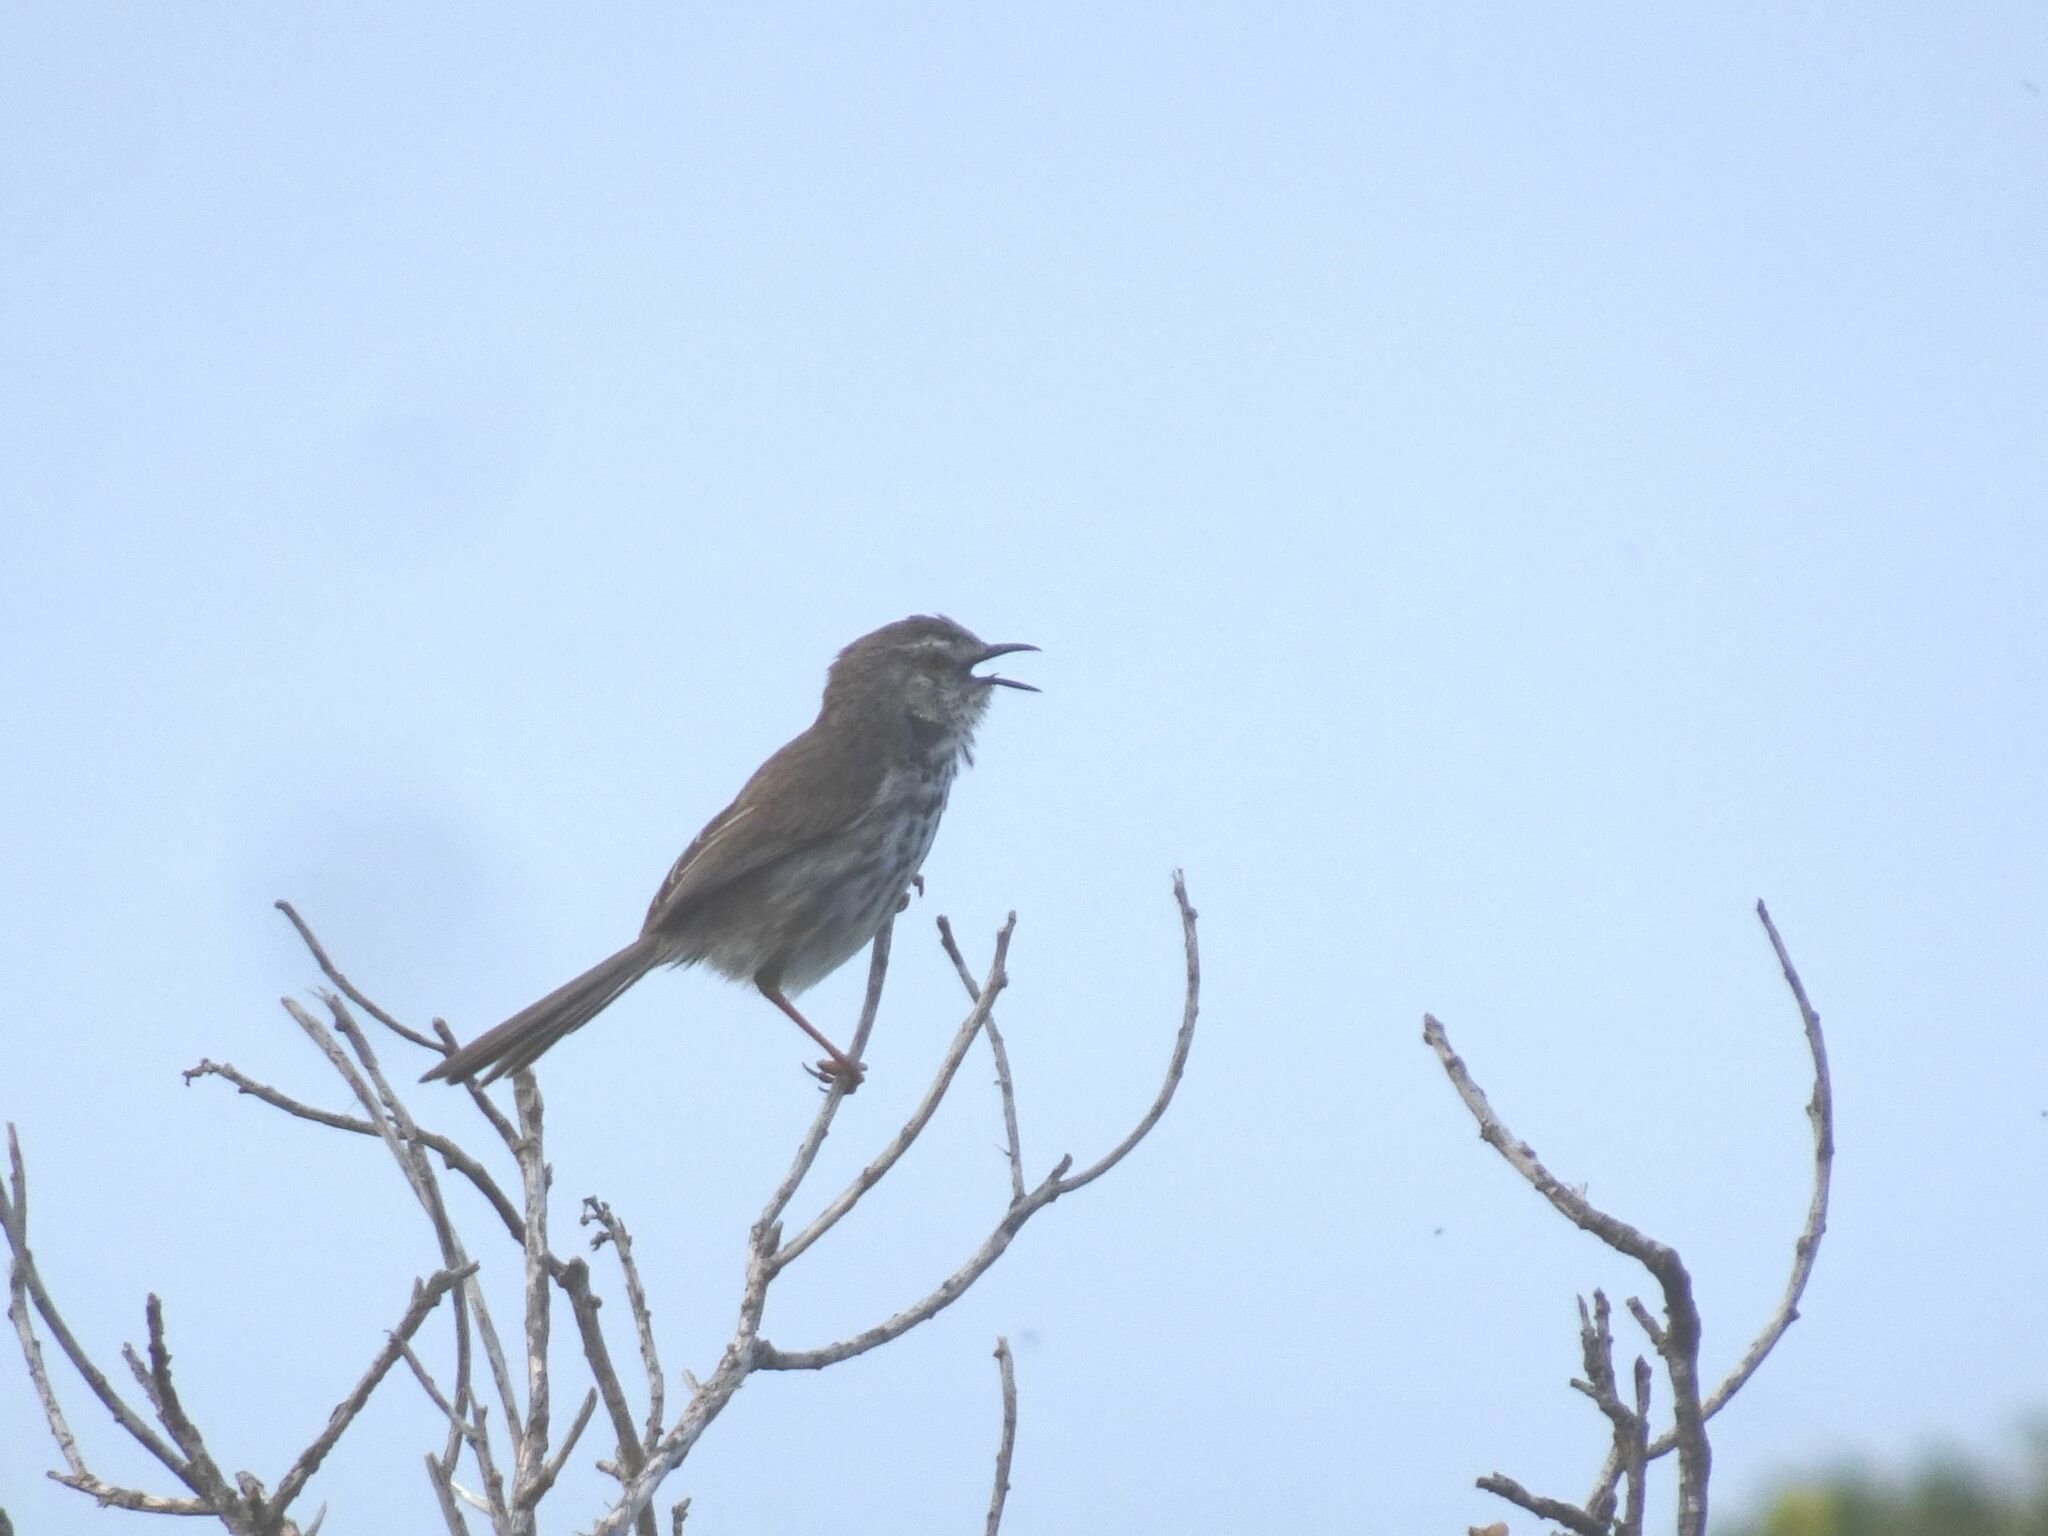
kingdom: Animalia
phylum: Chordata
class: Aves
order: Passeriformes
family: Cisticolidae
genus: Prinia
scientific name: Prinia maculosa
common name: Karoo prinia
